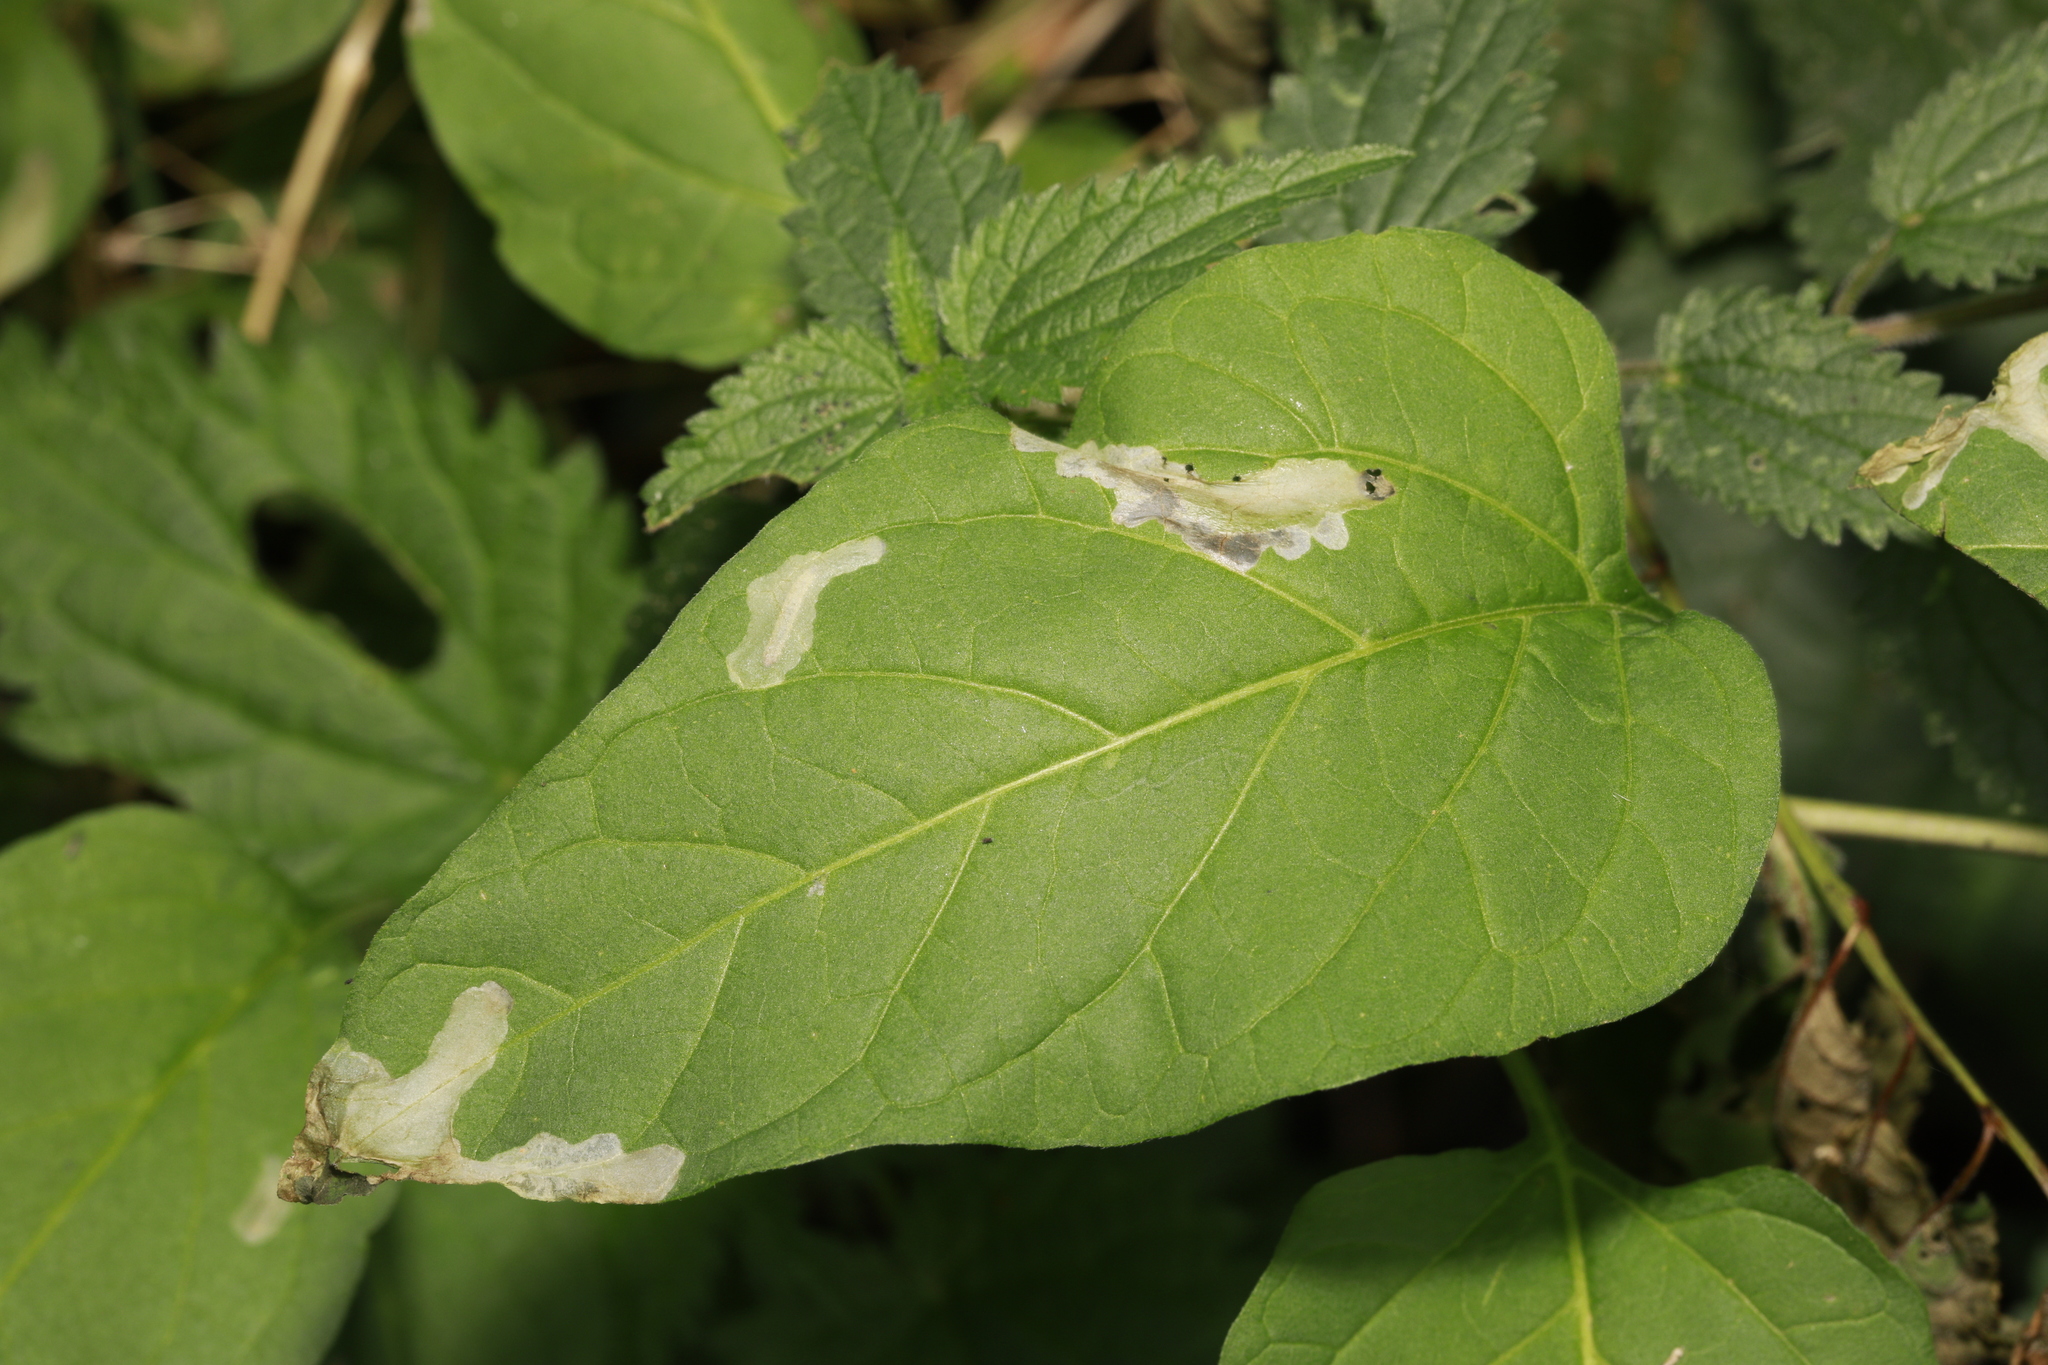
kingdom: Animalia
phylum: Arthropoda
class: Insecta
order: Lepidoptera
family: Bedelliidae
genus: Bedellia
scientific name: Bedellia somnulentella
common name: Morning-glory leafminer moth
